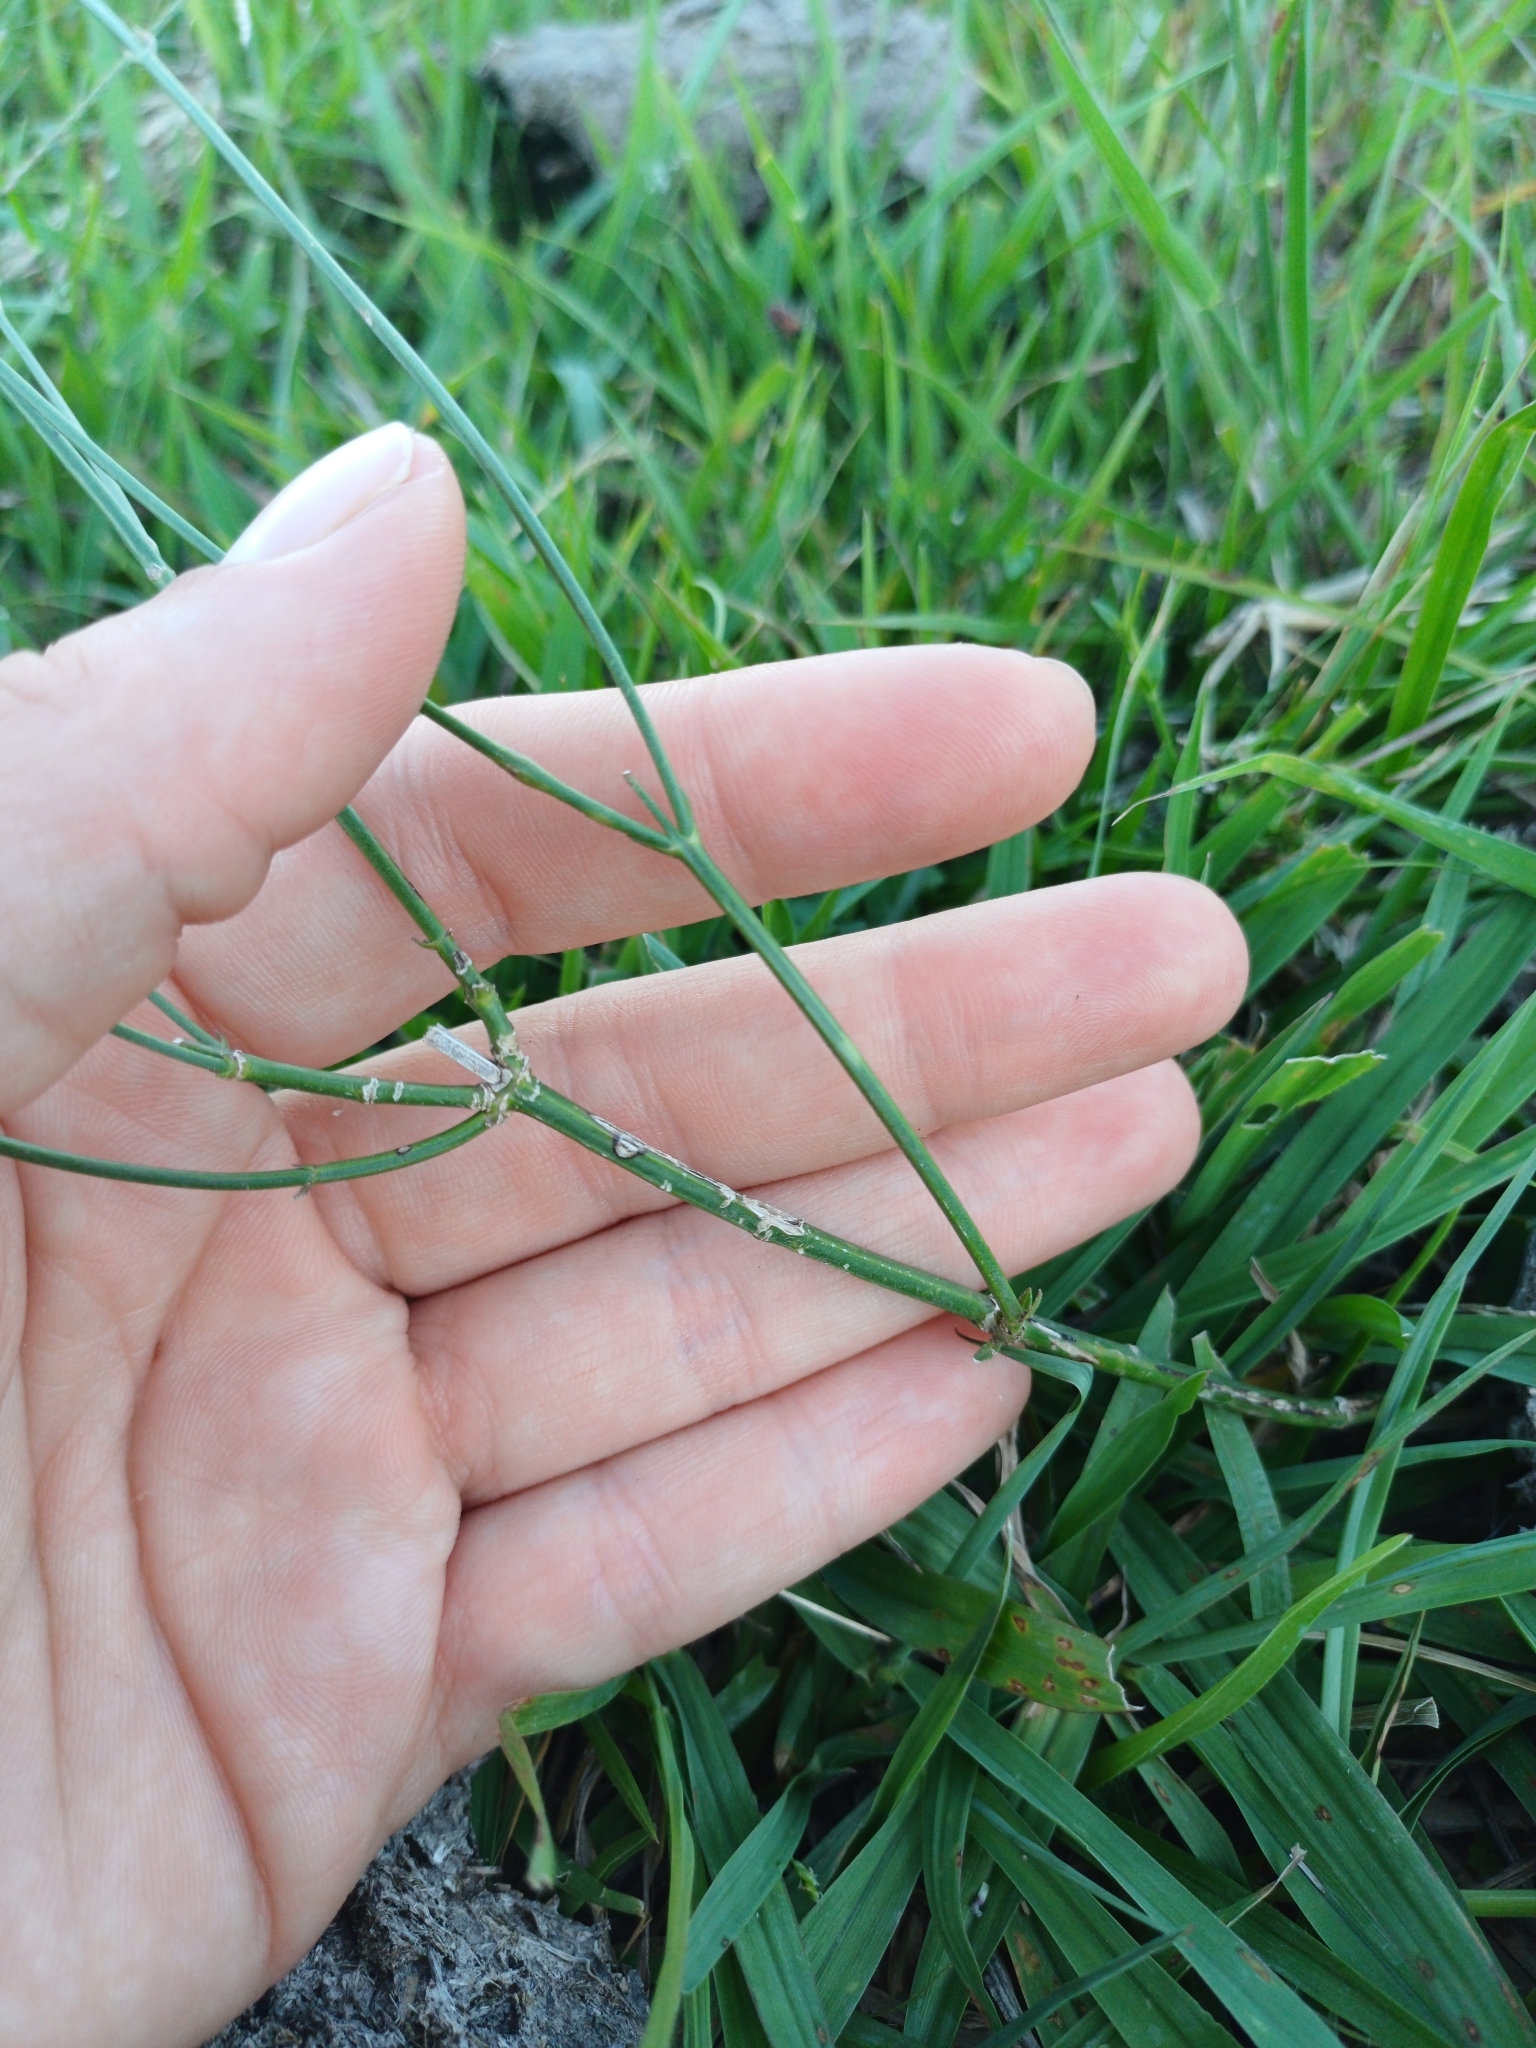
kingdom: Plantae
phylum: Tracheophyta
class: Magnoliopsida
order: Lamiales
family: Verbenaceae
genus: Verbena
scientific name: Verbena montevidensis
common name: Uruguayan vervain
